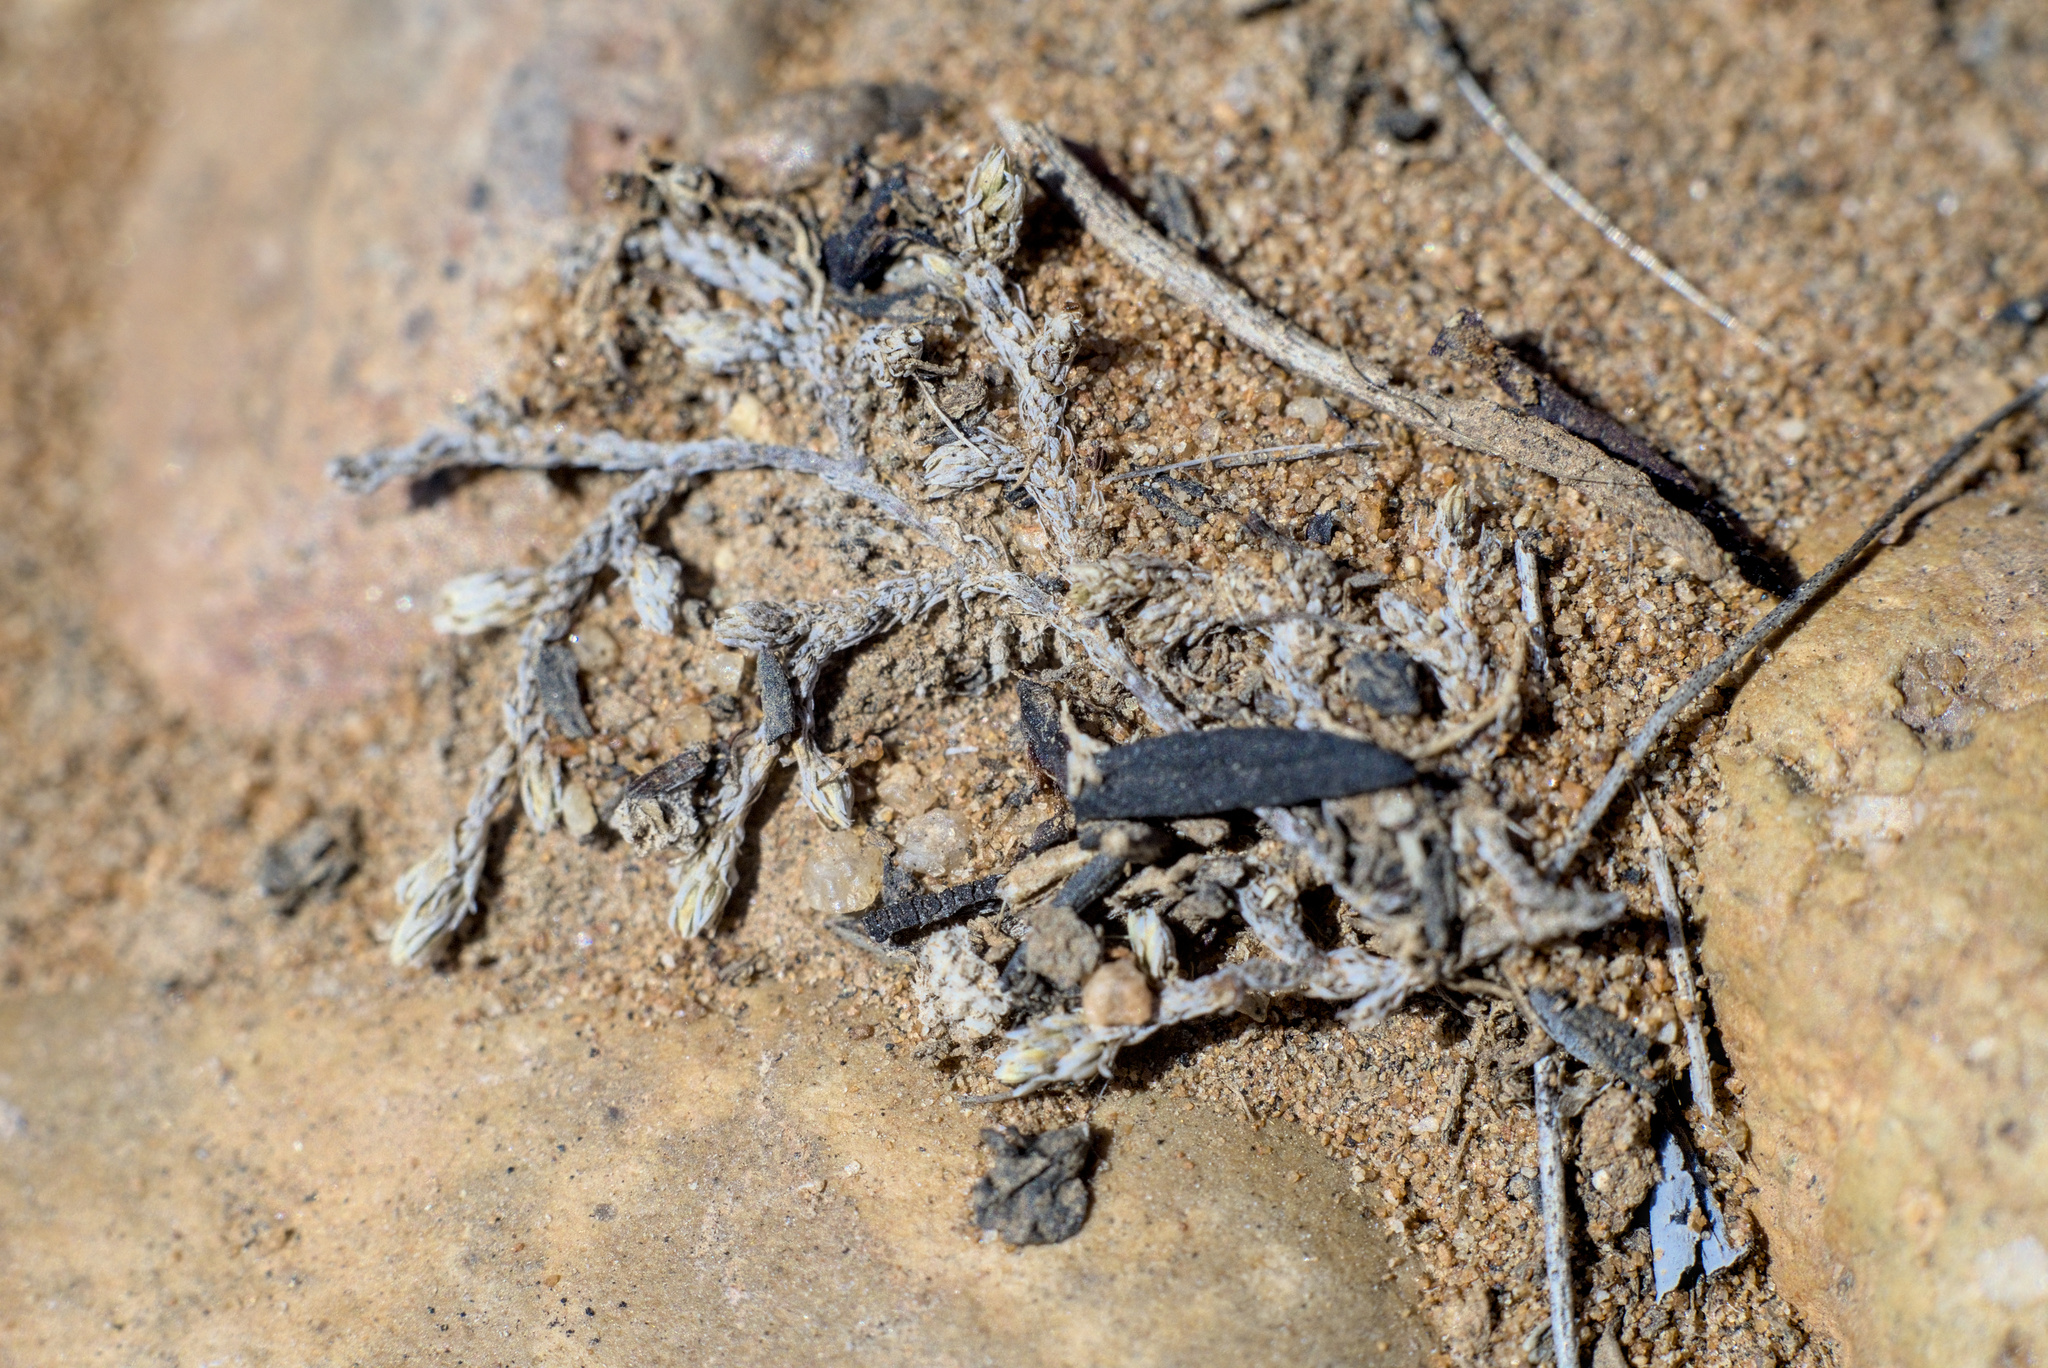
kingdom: Plantae
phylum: Tracheophyta
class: Lycopodiopsida
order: Selaginellales
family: Selaginellaceae
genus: Selaginella
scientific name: Selaginella cinerascens
